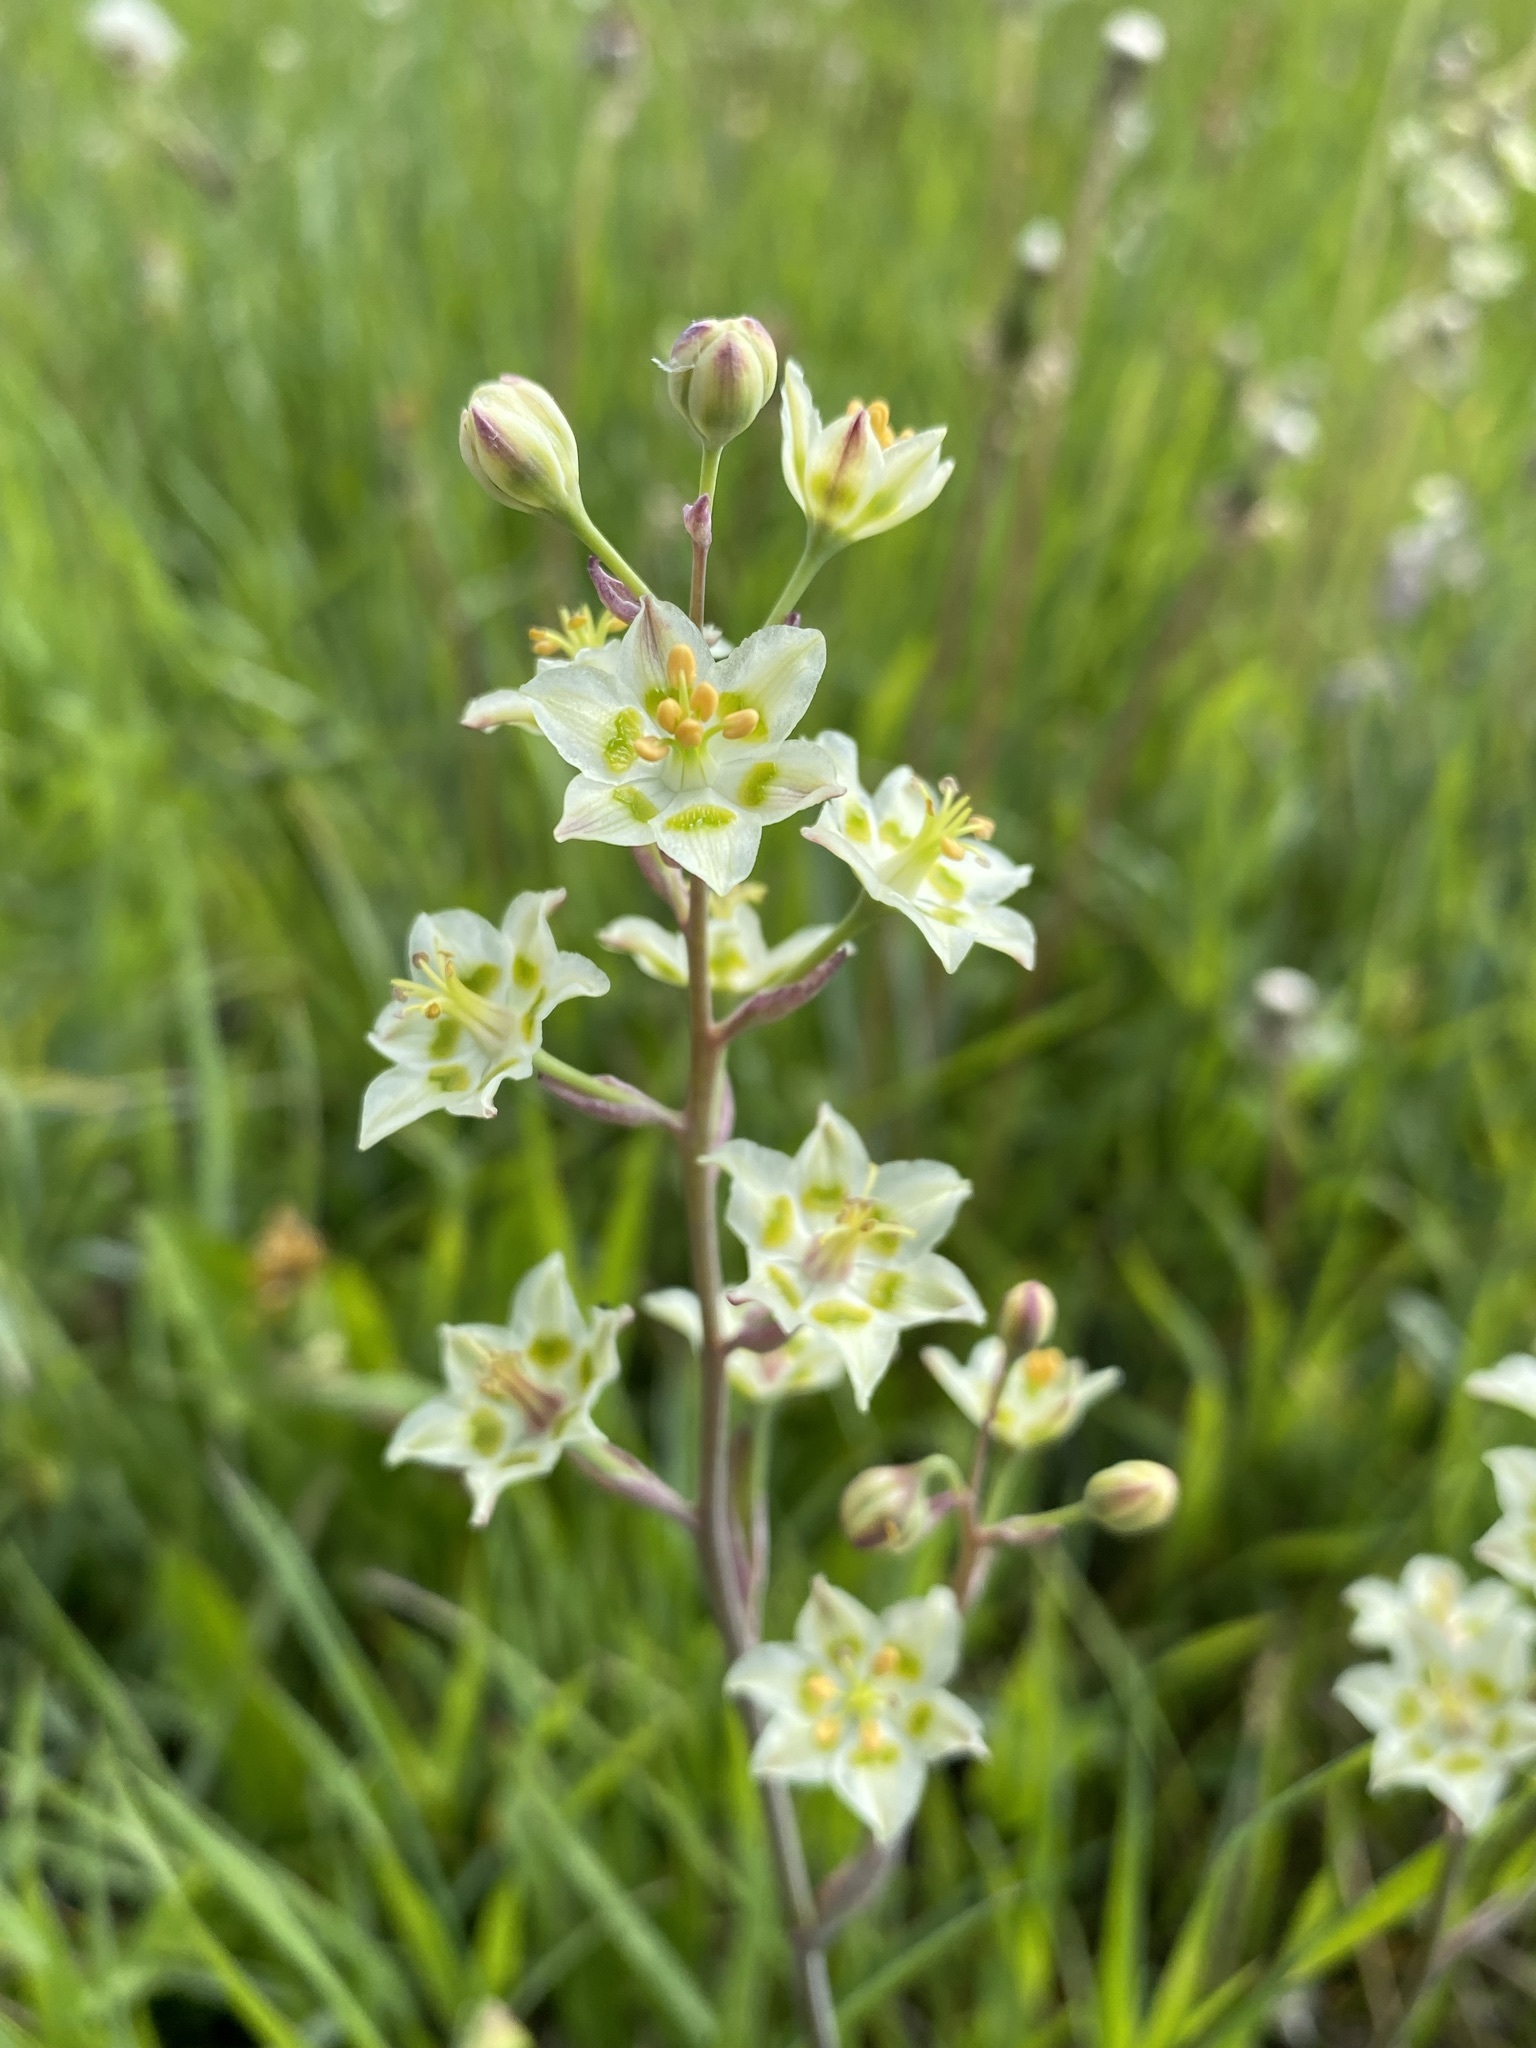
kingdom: Plantae
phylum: Tracheophyta
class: Liliopsida
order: Liliales
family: Melanthiaceae
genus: Anticlea
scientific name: Anticlea elegans
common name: Mountain death camas
